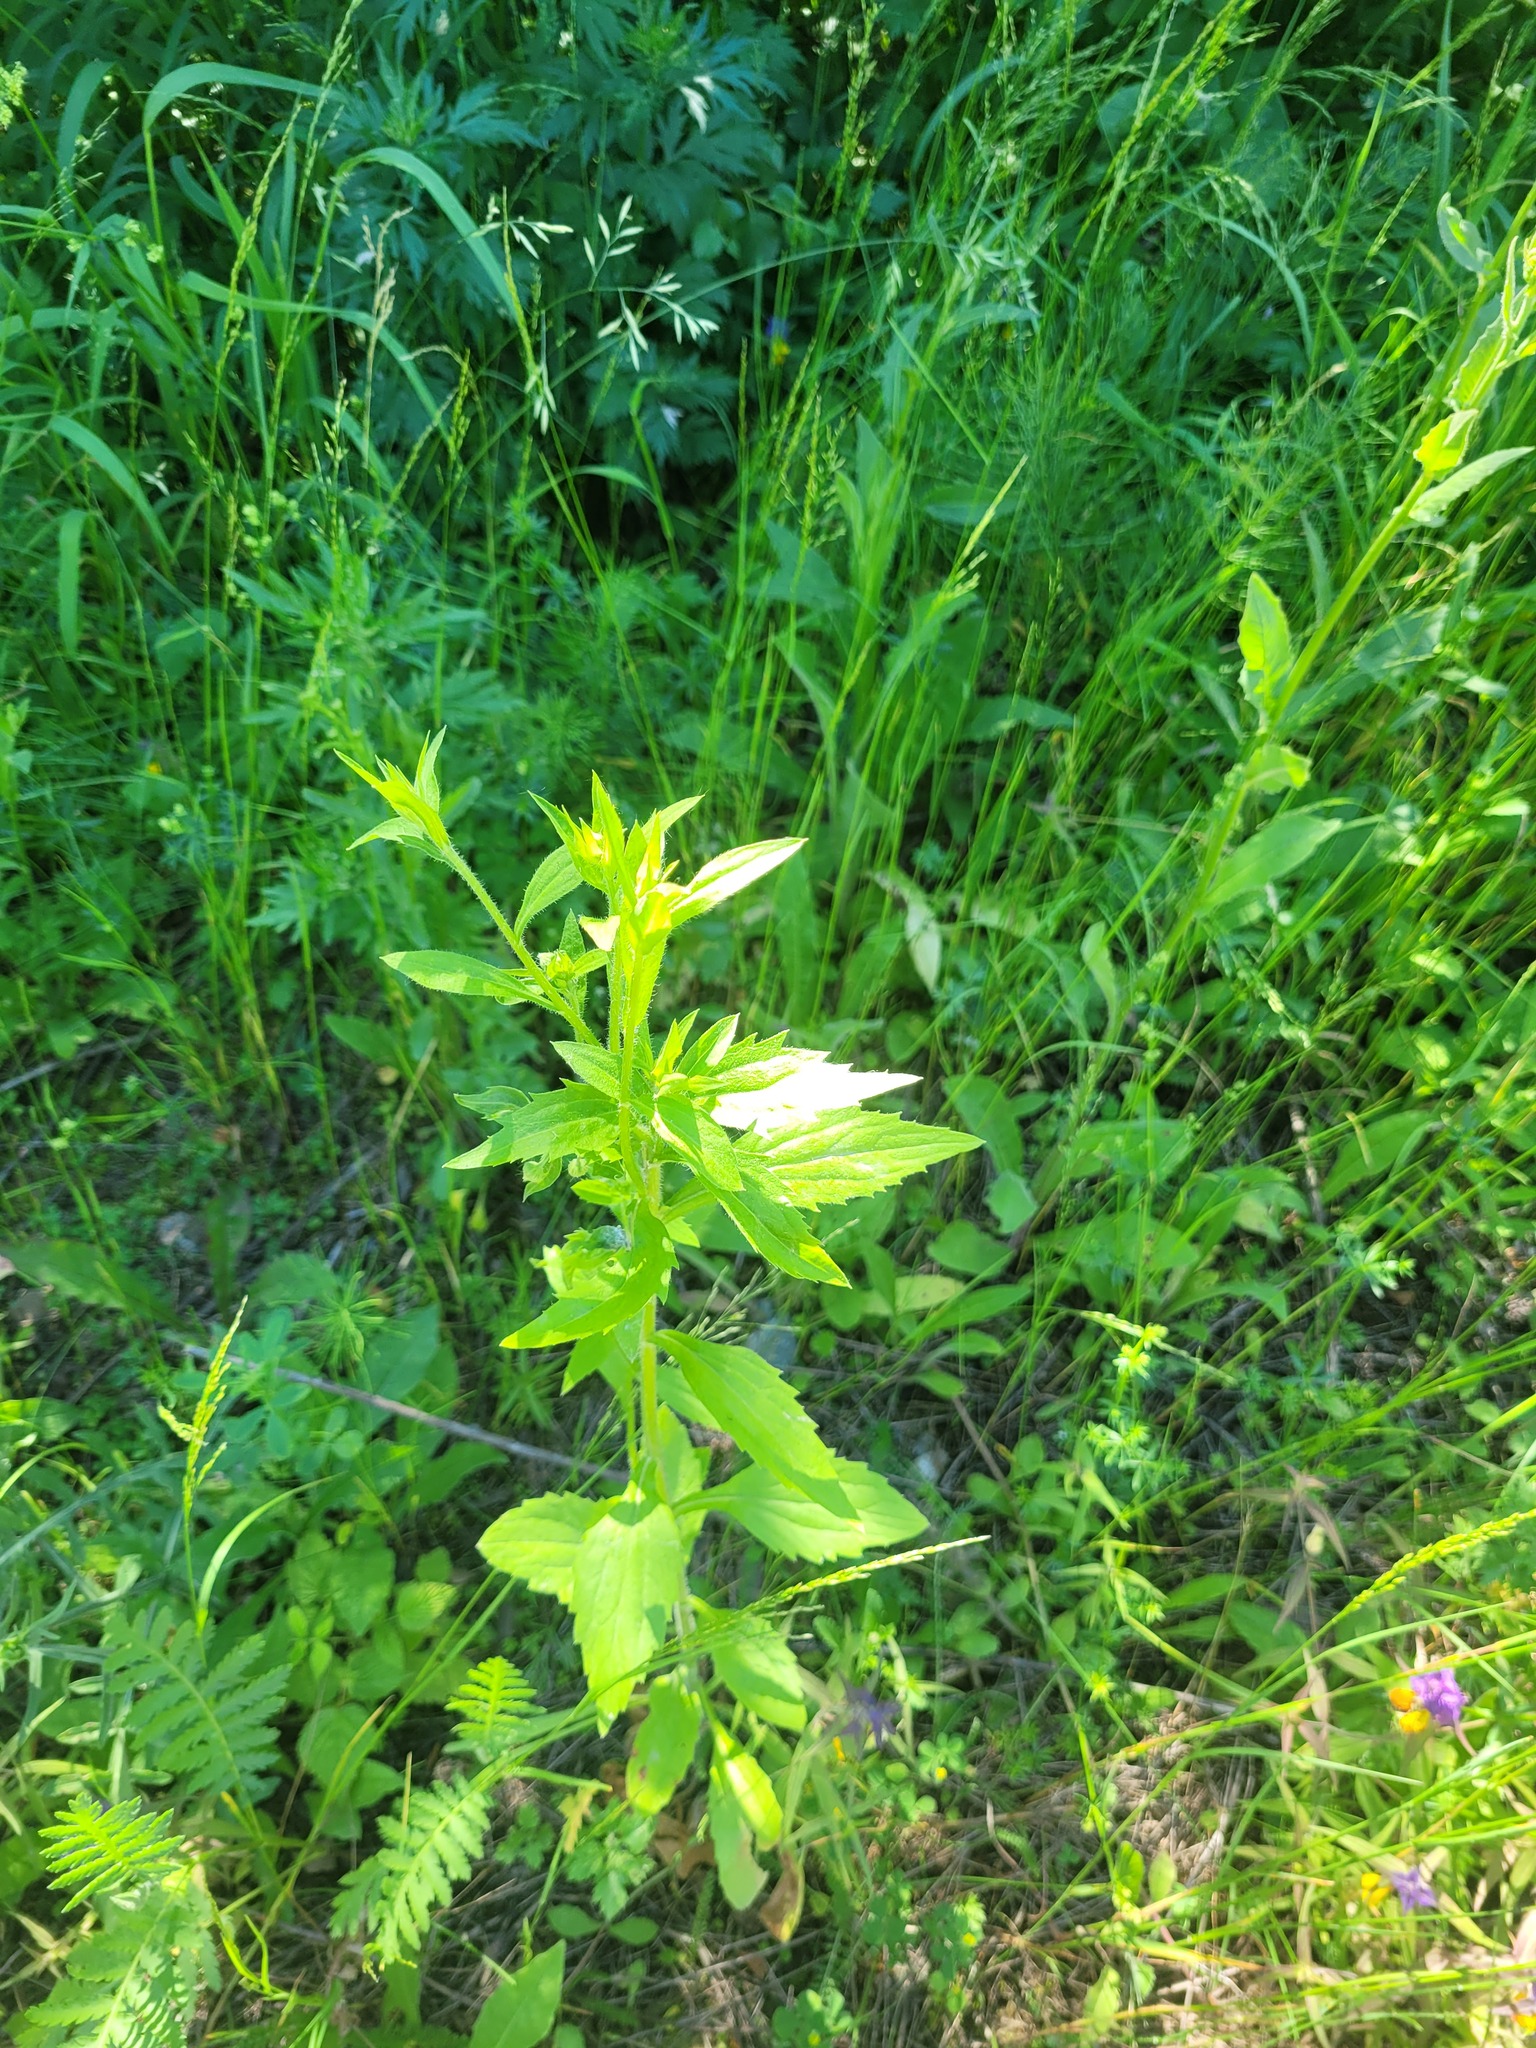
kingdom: Plantae
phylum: Tracheophyta
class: Magnoliopsida
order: Asterales
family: Asteraceae
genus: Erigeron
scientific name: Erigeron annuus
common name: Tall fleabane
